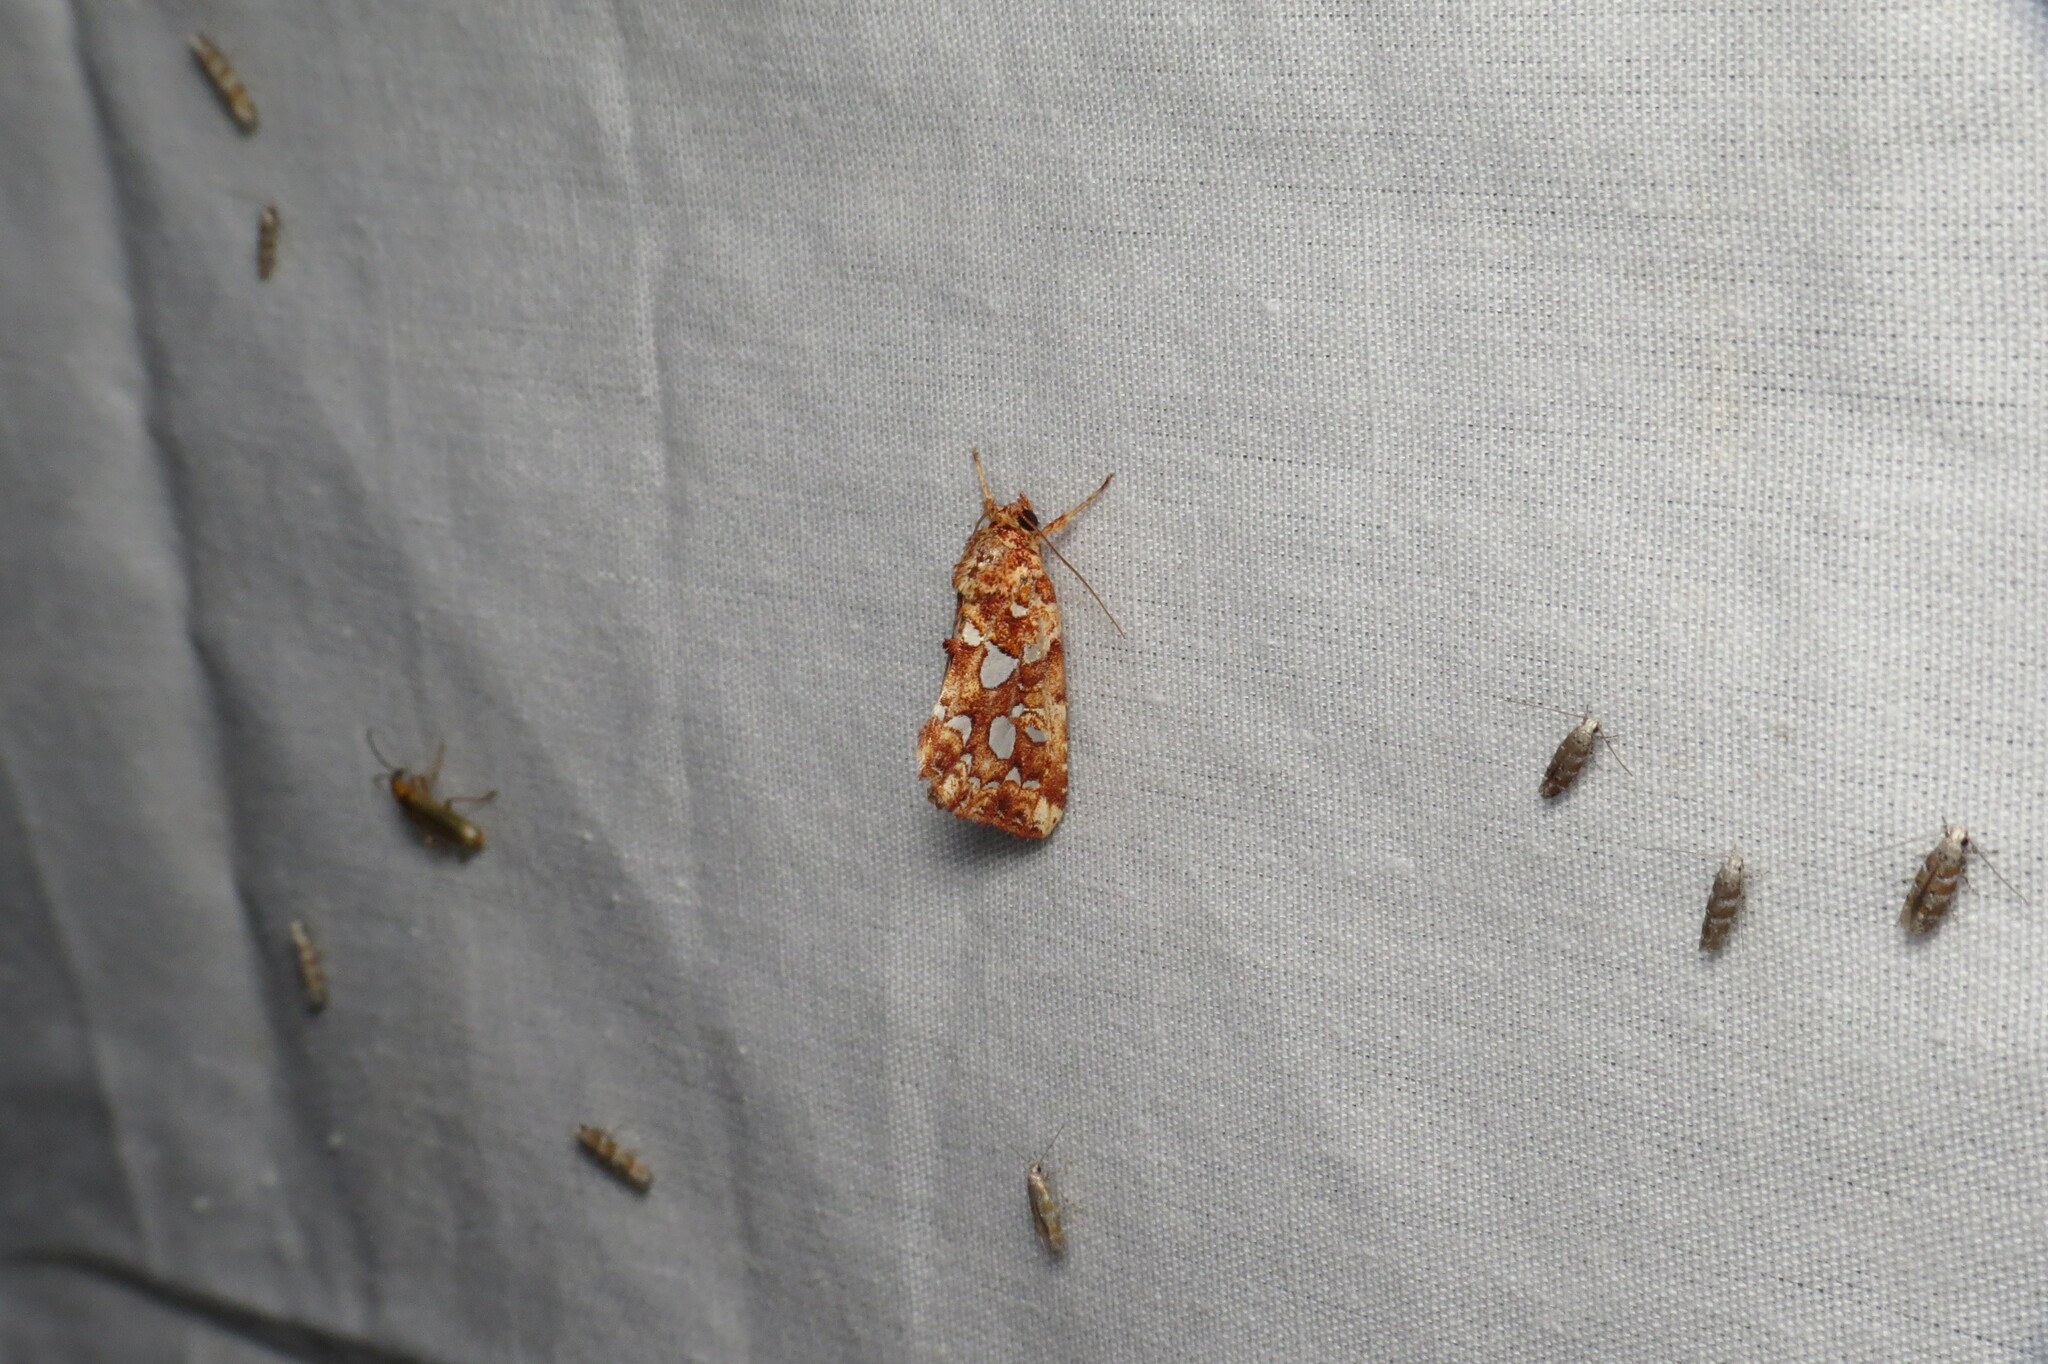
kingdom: Animalia
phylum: Arthropoda
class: Insecta
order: Lepidoptera
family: Noctuidae
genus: Callopistria
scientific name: Callopistria cordata
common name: Silver-spotted fern moth
